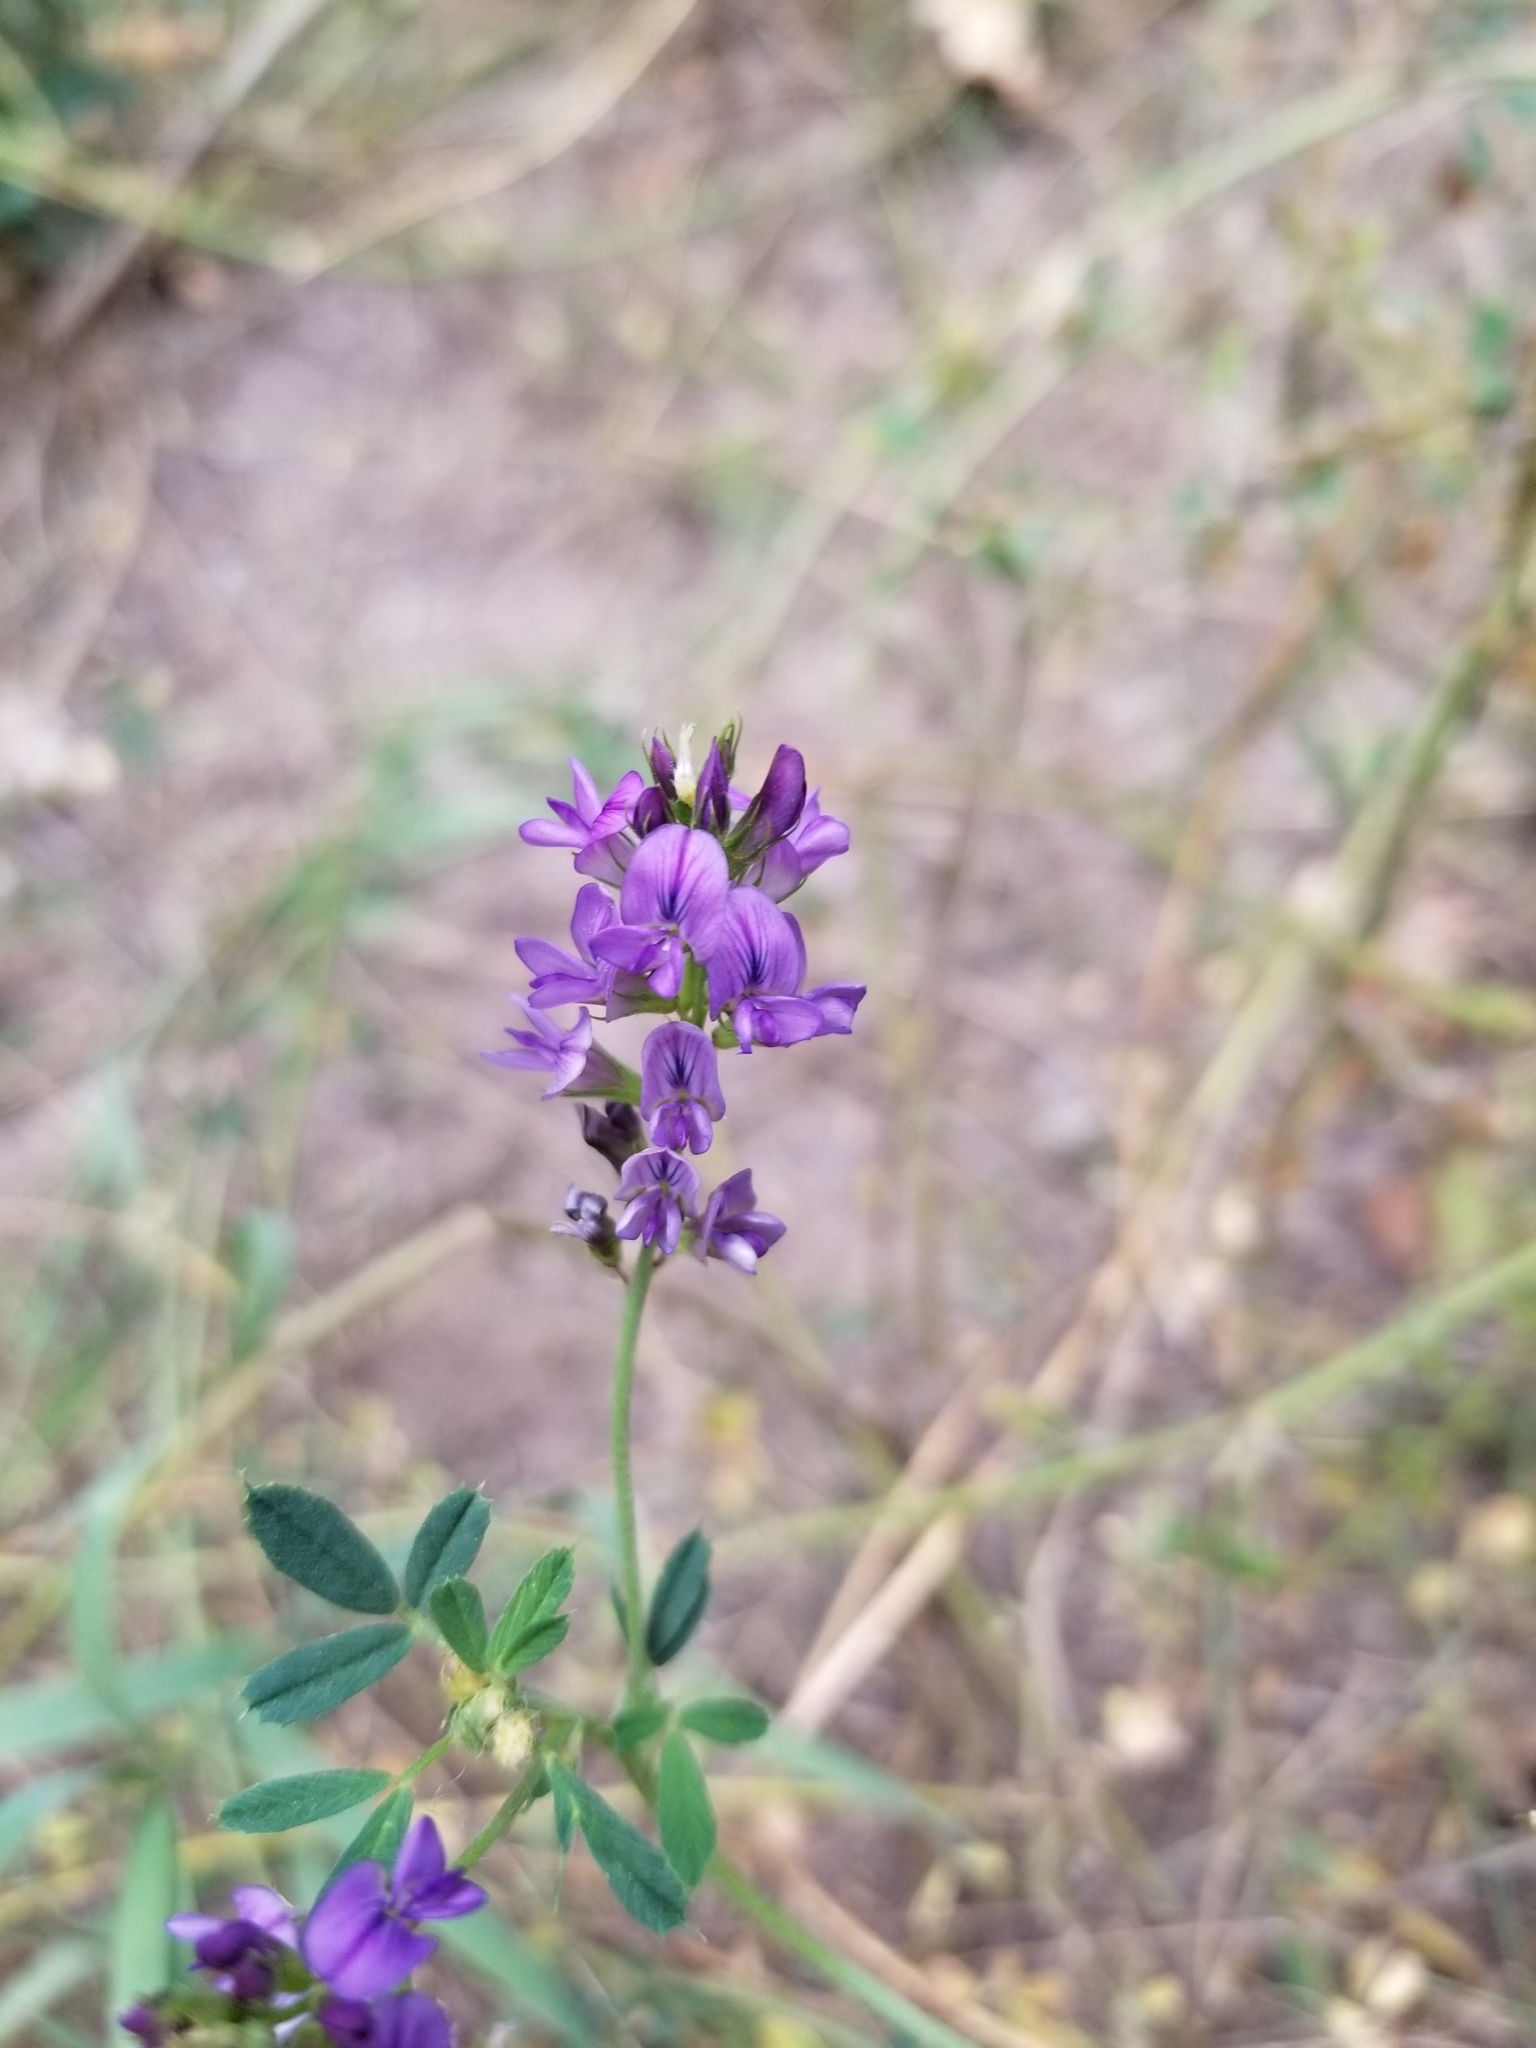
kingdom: Plantae
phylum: Tracheophyta
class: Magnoliopsida
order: Fabales
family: Fabaceae
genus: Medicago
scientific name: Medicago sativa
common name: Alfalfa
